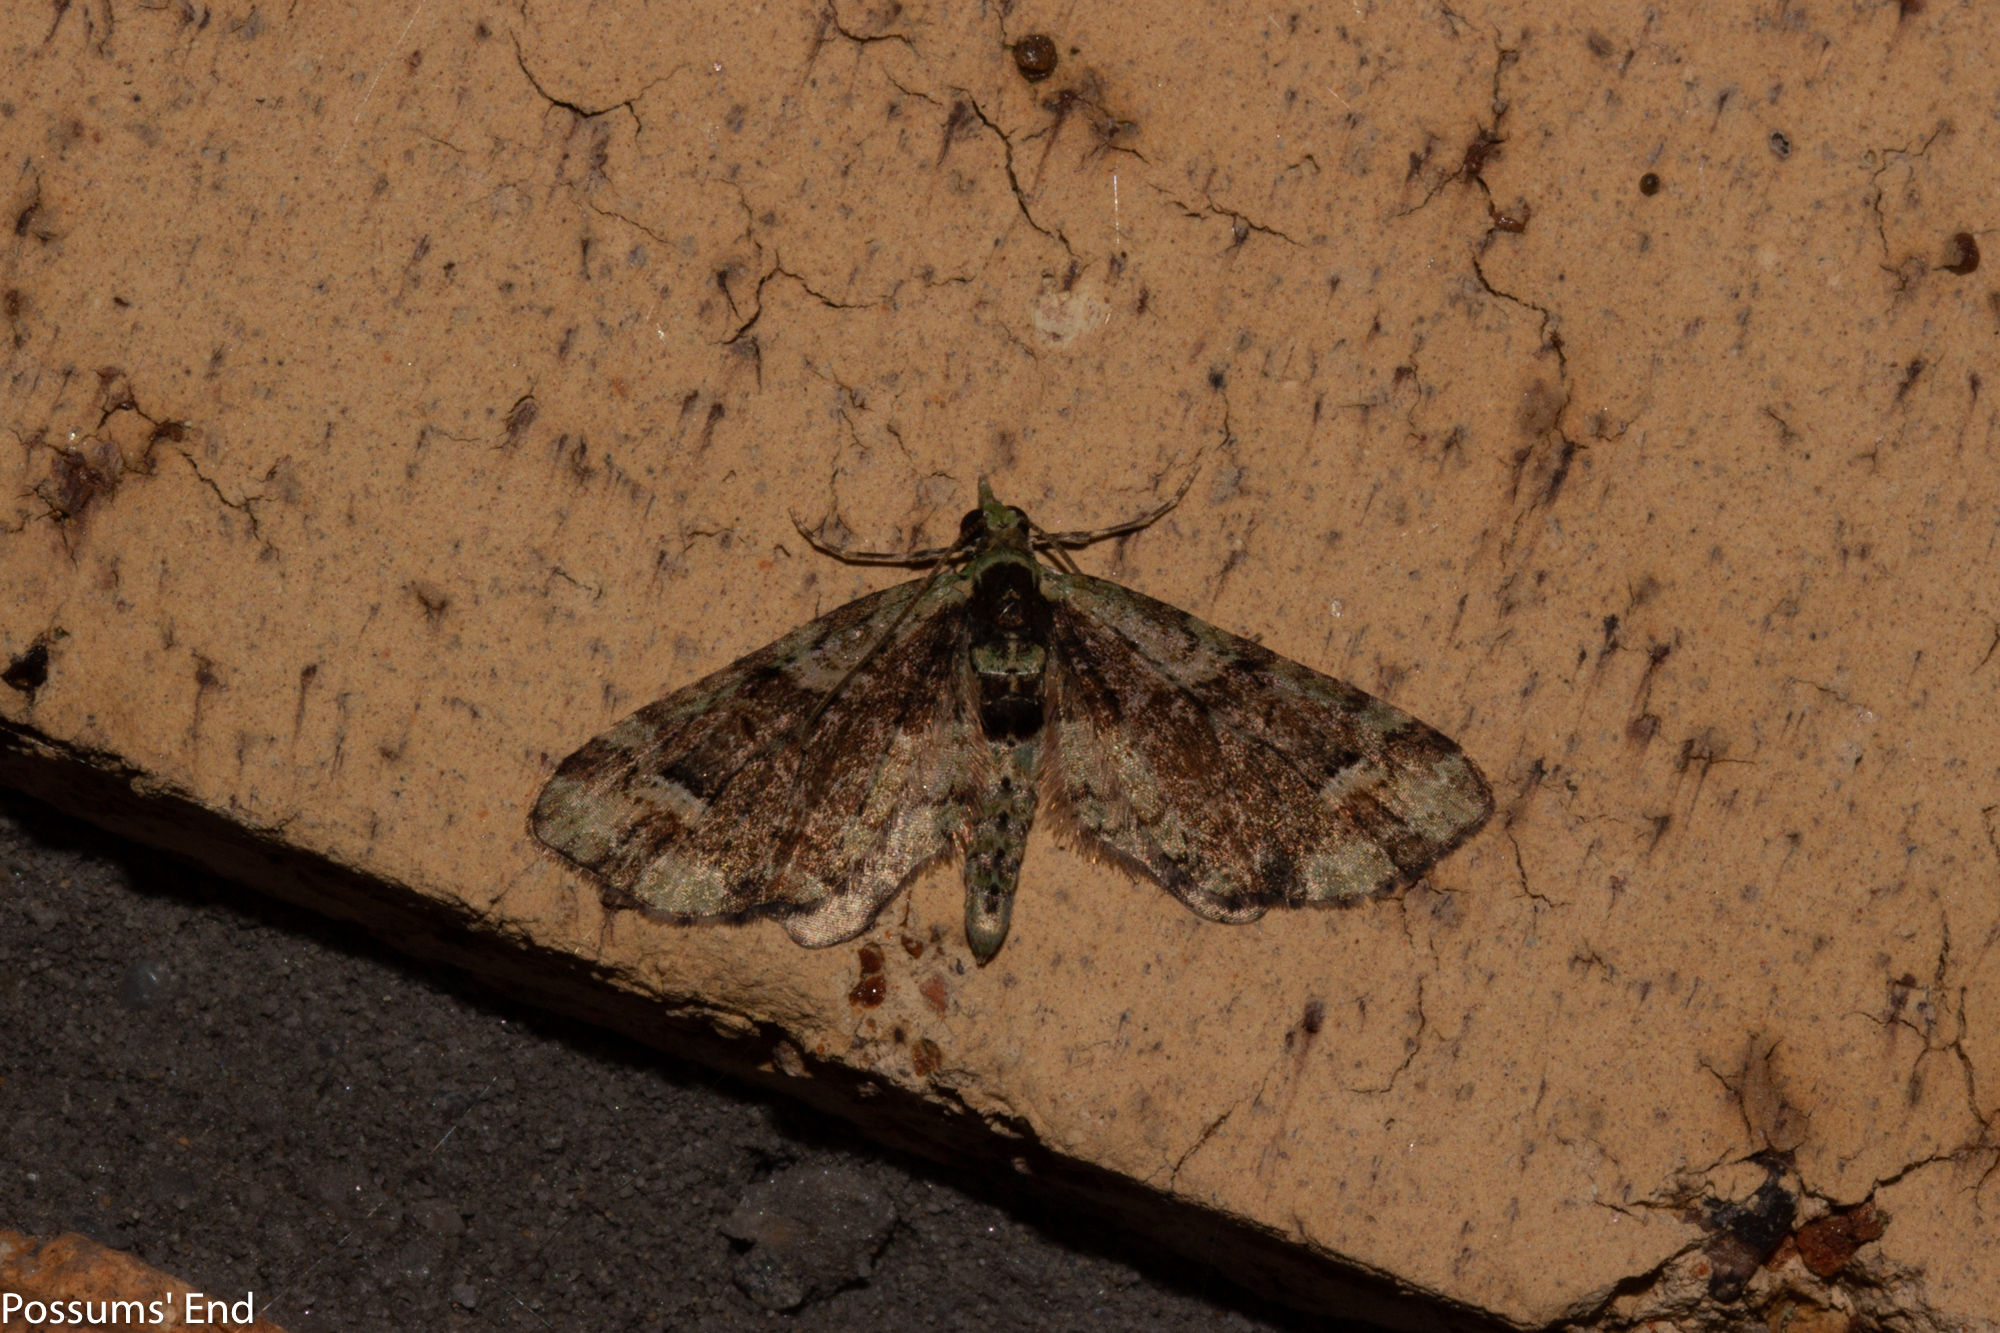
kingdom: Animalia
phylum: Arthropoda
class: Insecta
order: Lepidoptera
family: Geometridae
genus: Idaea
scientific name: Idaea mutanda
